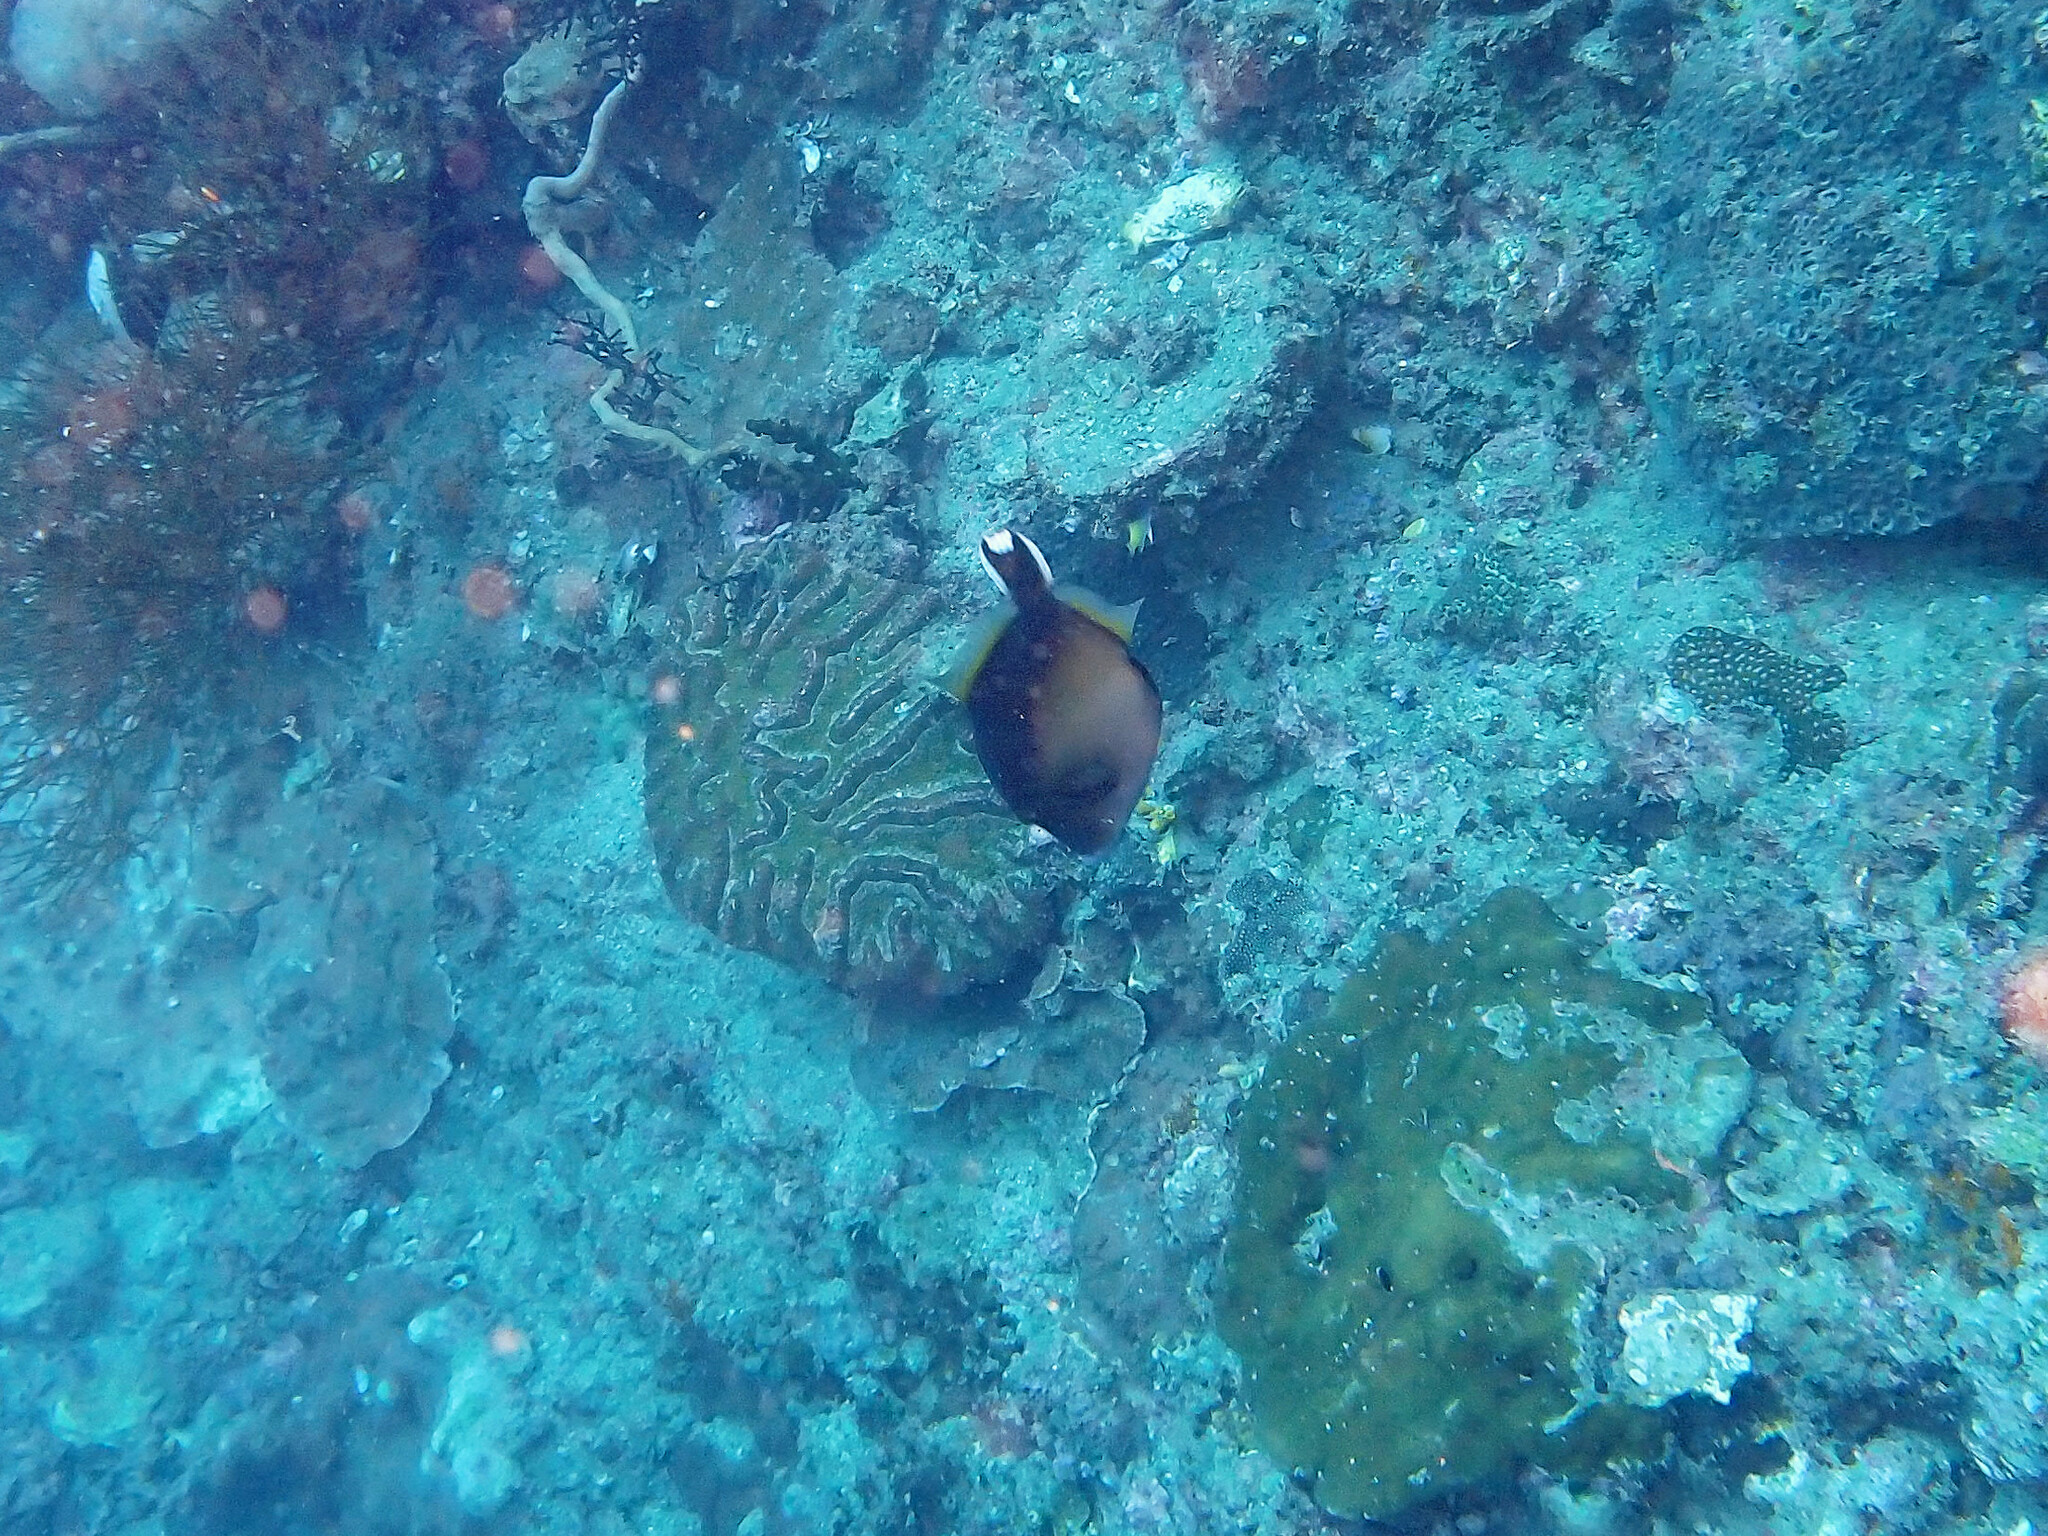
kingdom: Animalia
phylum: Chordata
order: Tetraodontiformes
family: Balistidae
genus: Sufflamen
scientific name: Sufflamen chrysopterum
